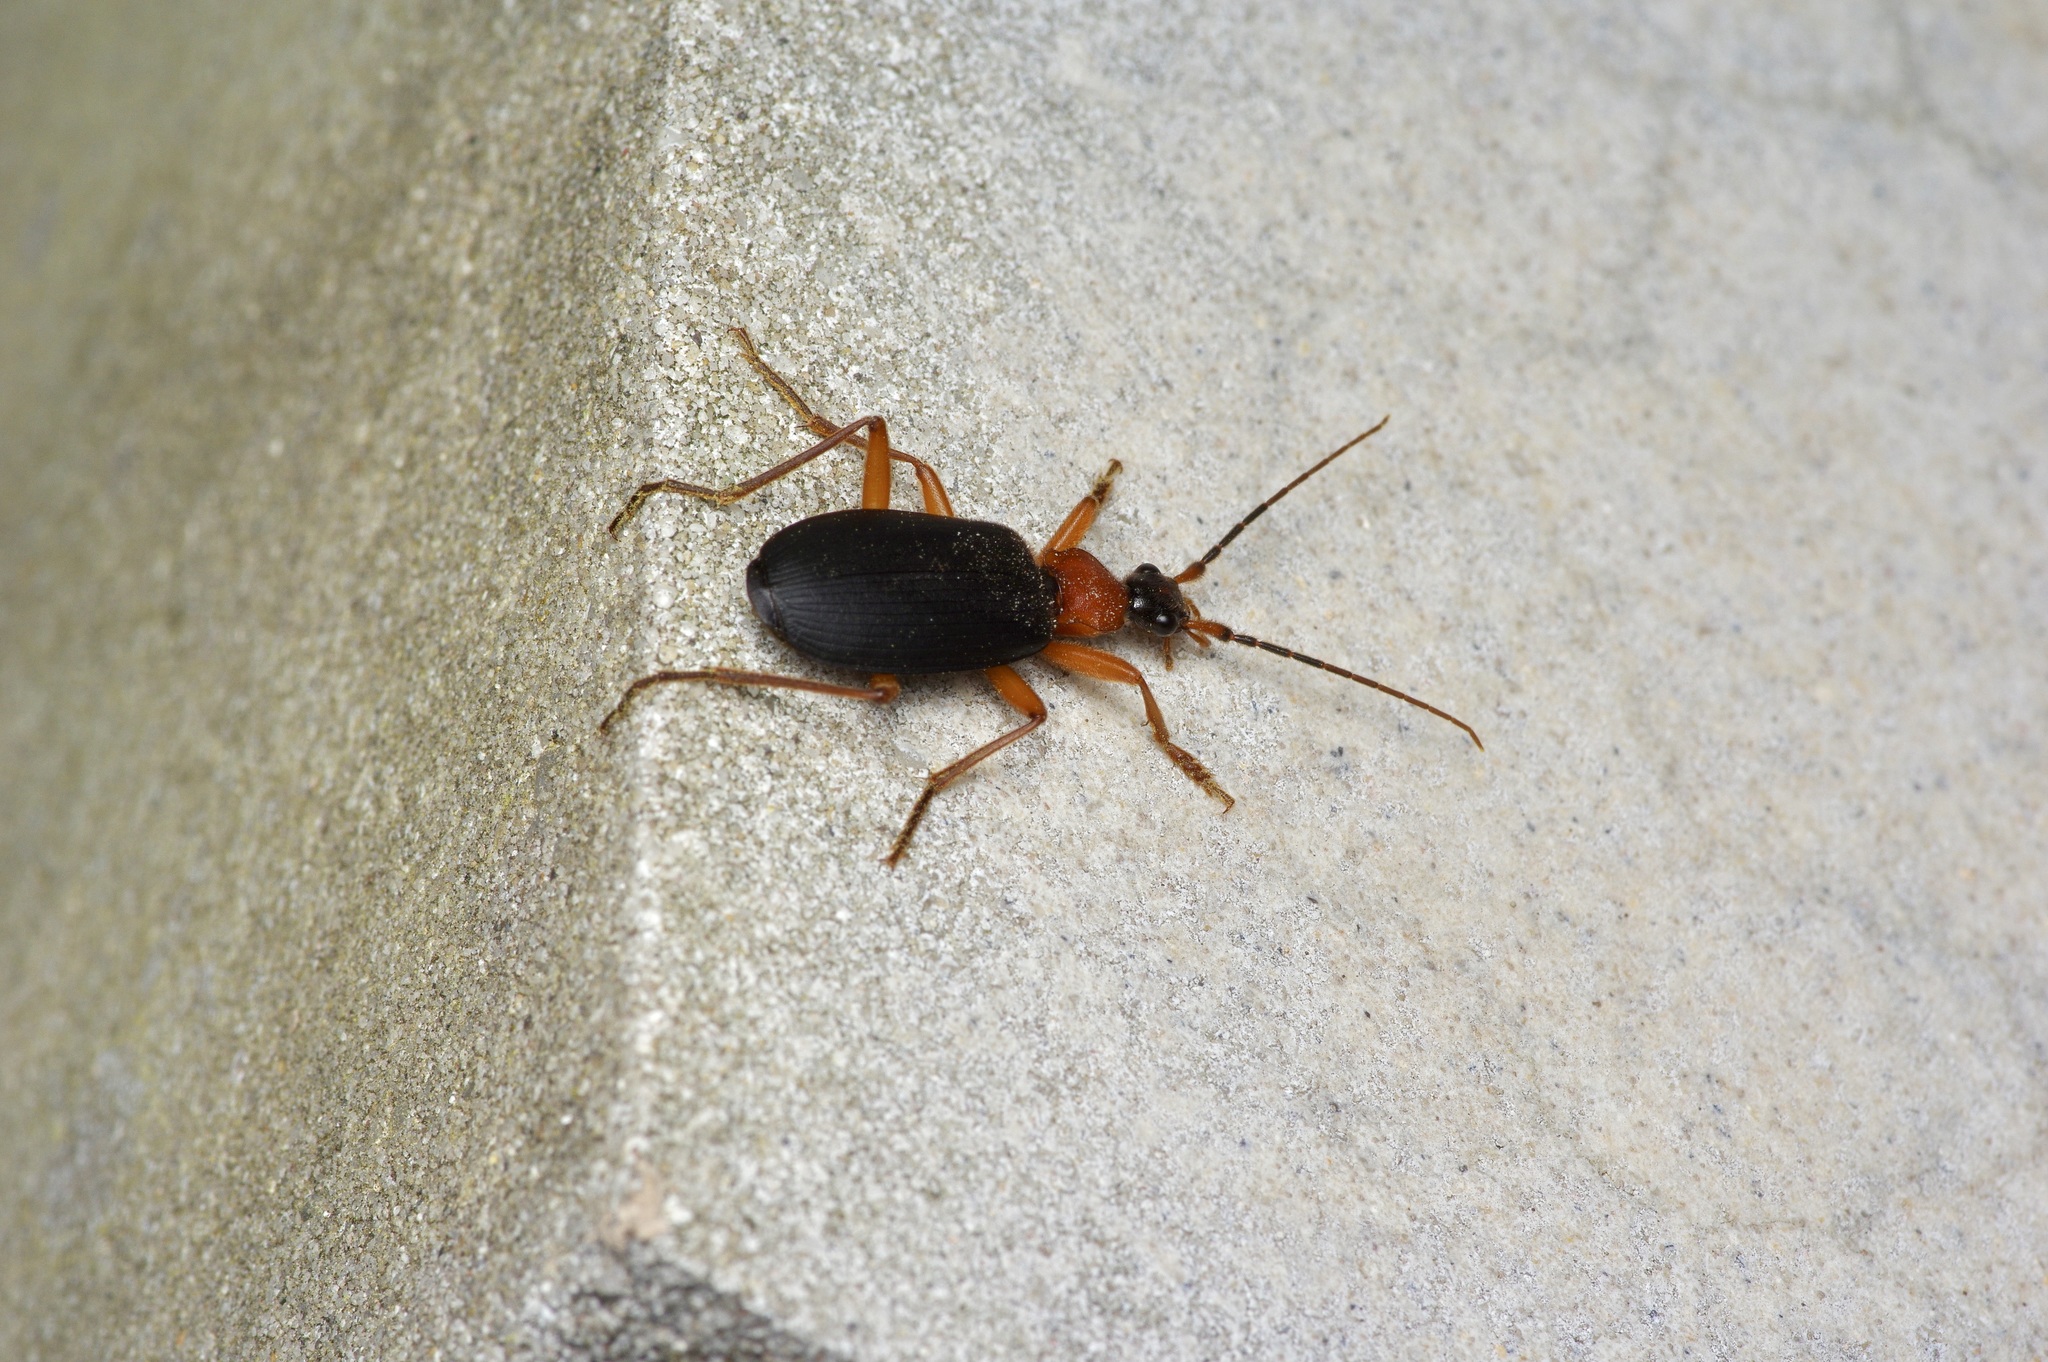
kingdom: Animalia
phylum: Arthropoda
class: Insecta
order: Coleoptera
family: Carabidae
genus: Galerita
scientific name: Galerita bicolor
